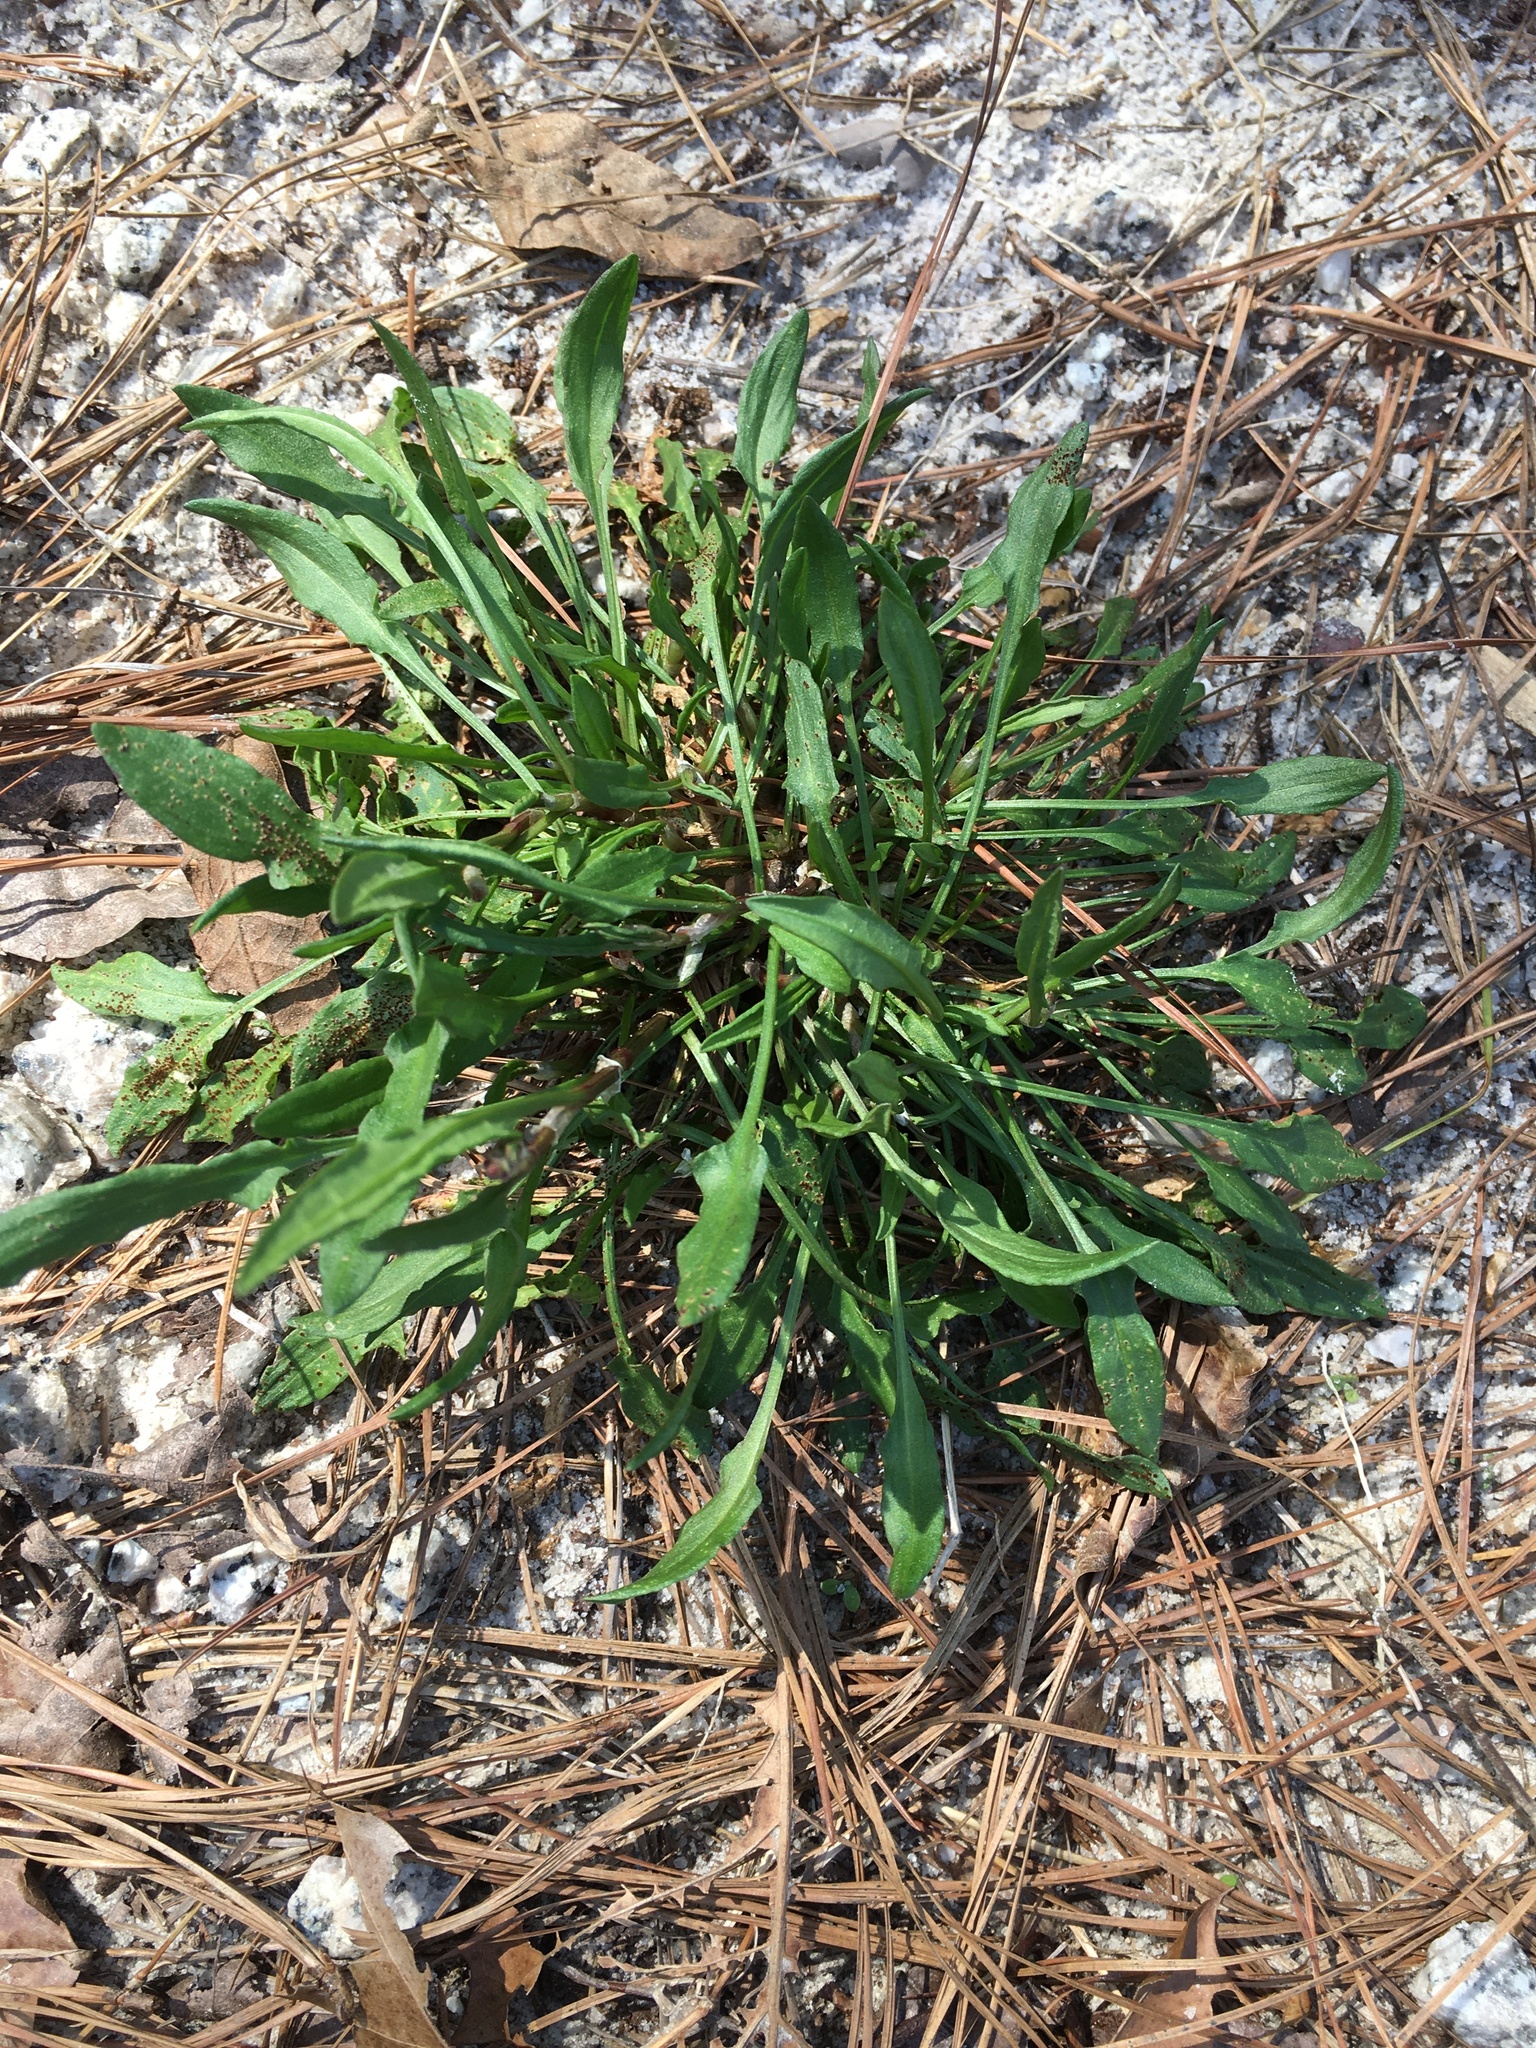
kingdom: Plantae
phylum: Tracheophyta
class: Magnoliopsida
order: Caryophyllales
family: Polygonaceae
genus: Rumex
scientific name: Rumex acetosella
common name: Common sheep sorrel
